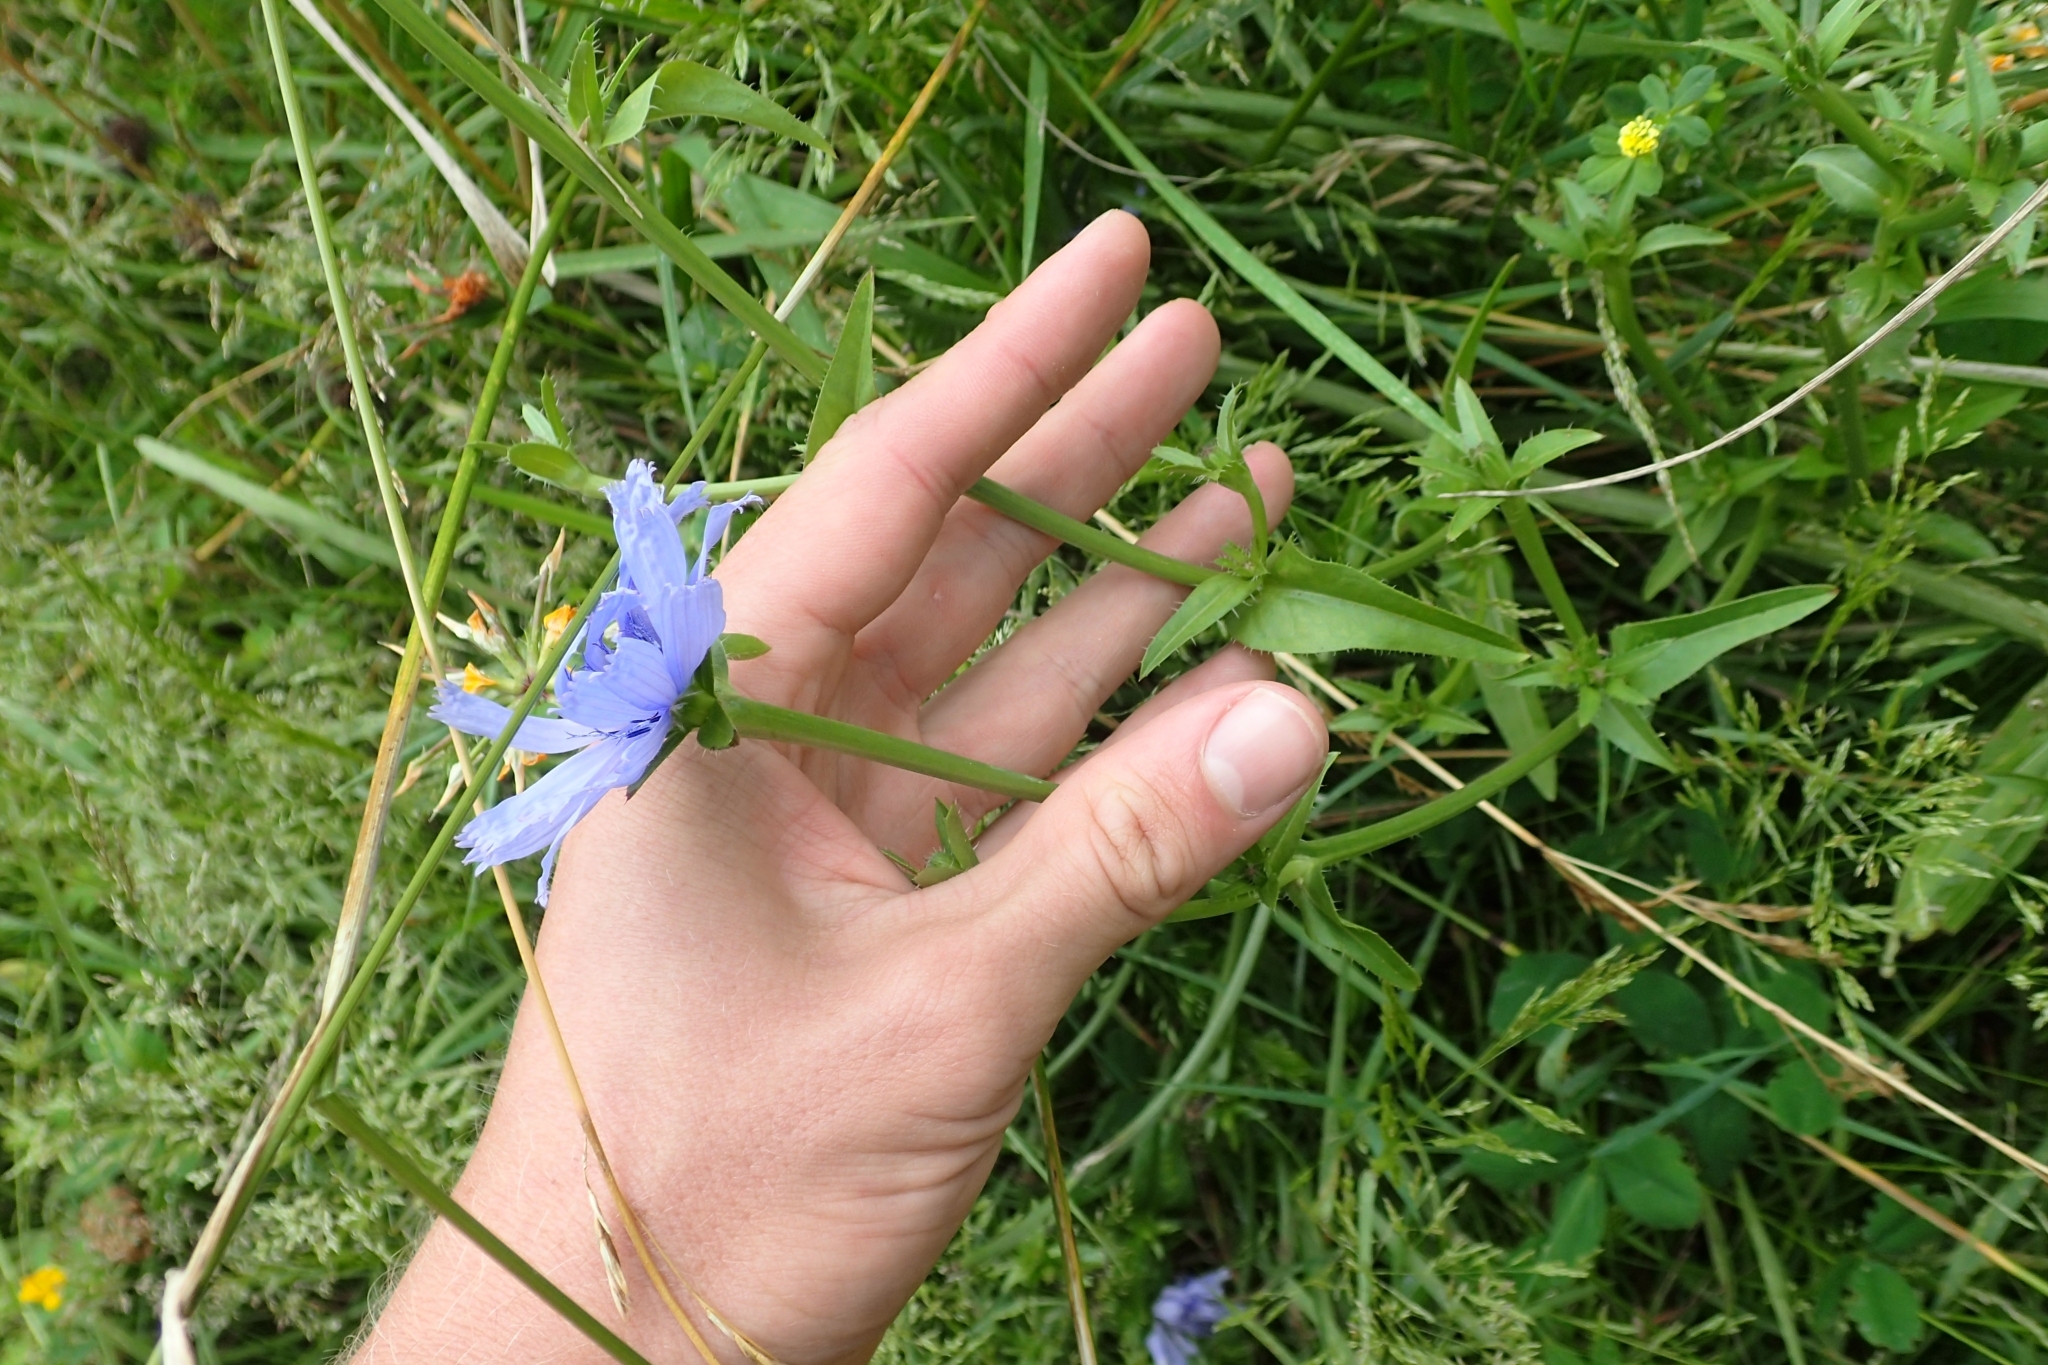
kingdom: Plantae
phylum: Tracheophyta
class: Magnoliopsida
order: Asterales
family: Asteraceae
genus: Cichorium
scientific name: Cichorium intybus
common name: Chicory
